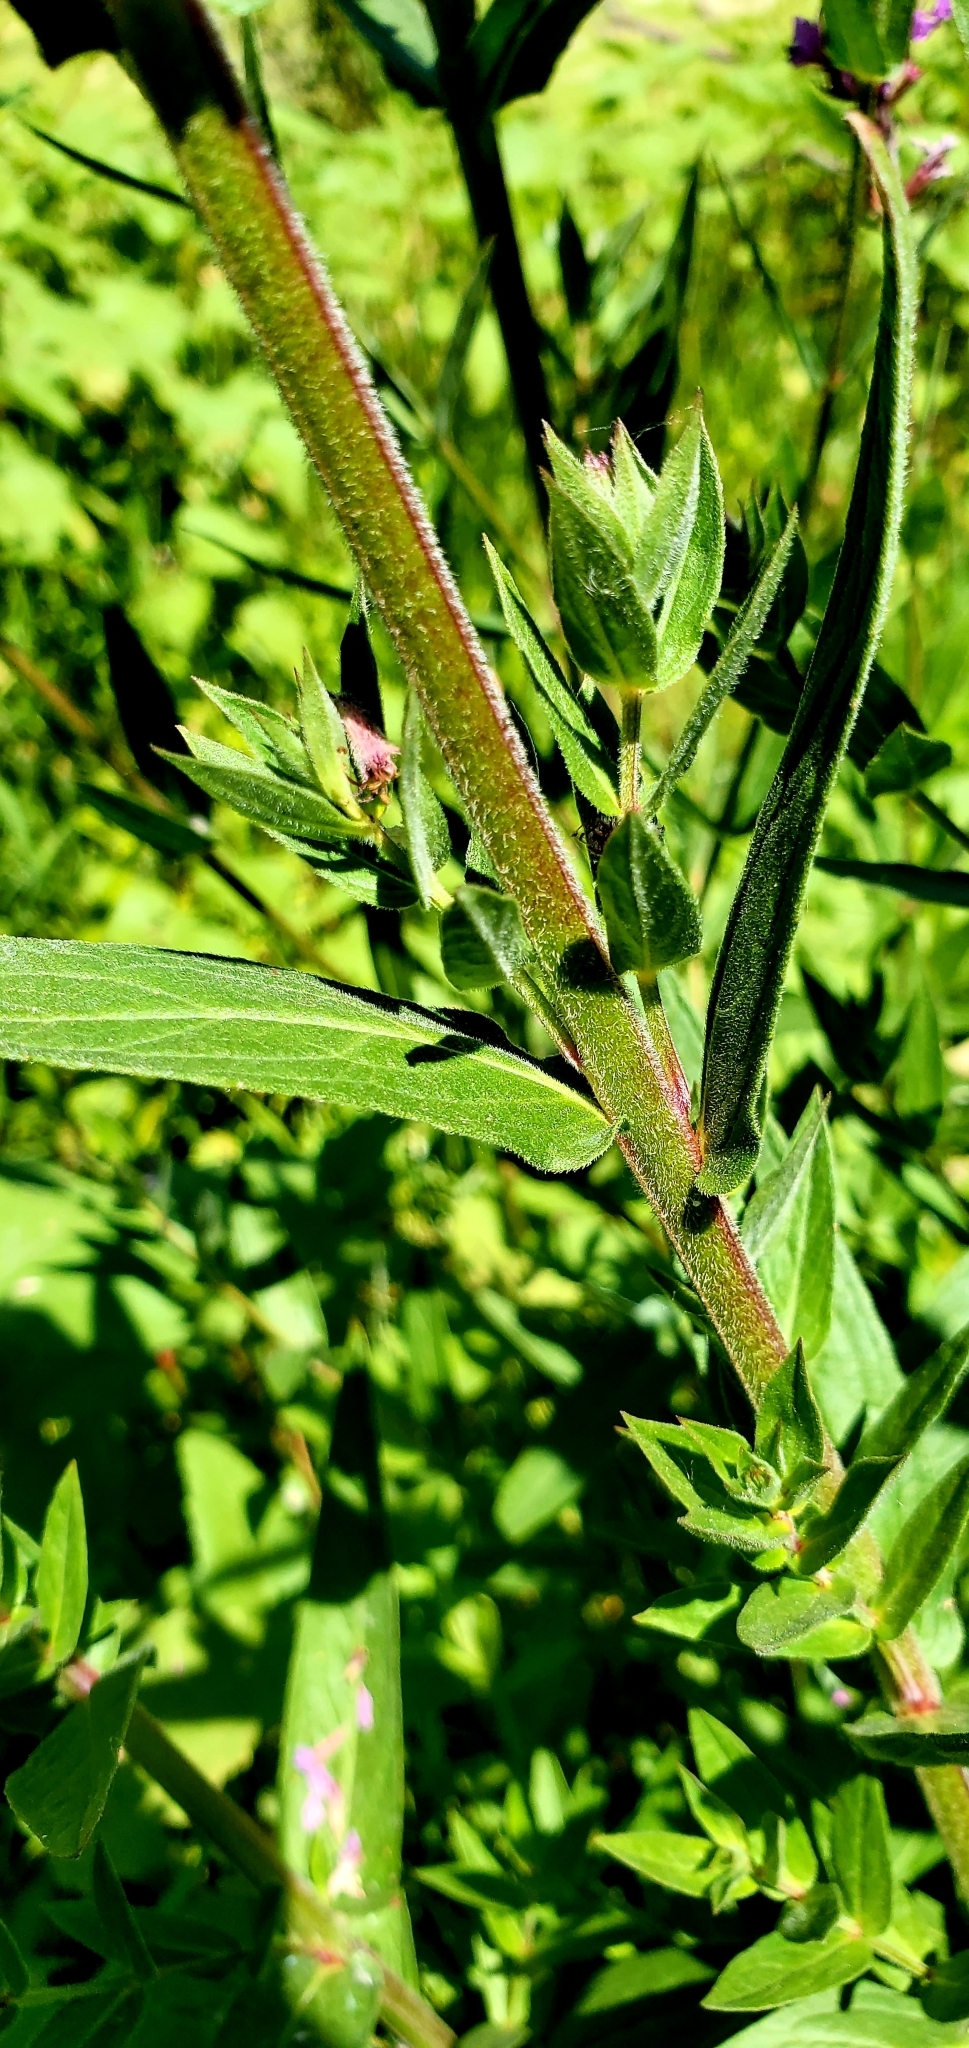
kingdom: Plantae
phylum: Tracheophyta
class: Magnoliopsida
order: Myrtales
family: Lythraceae
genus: Lythrum
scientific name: Lythrum salicaria
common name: Purple loosestrife
